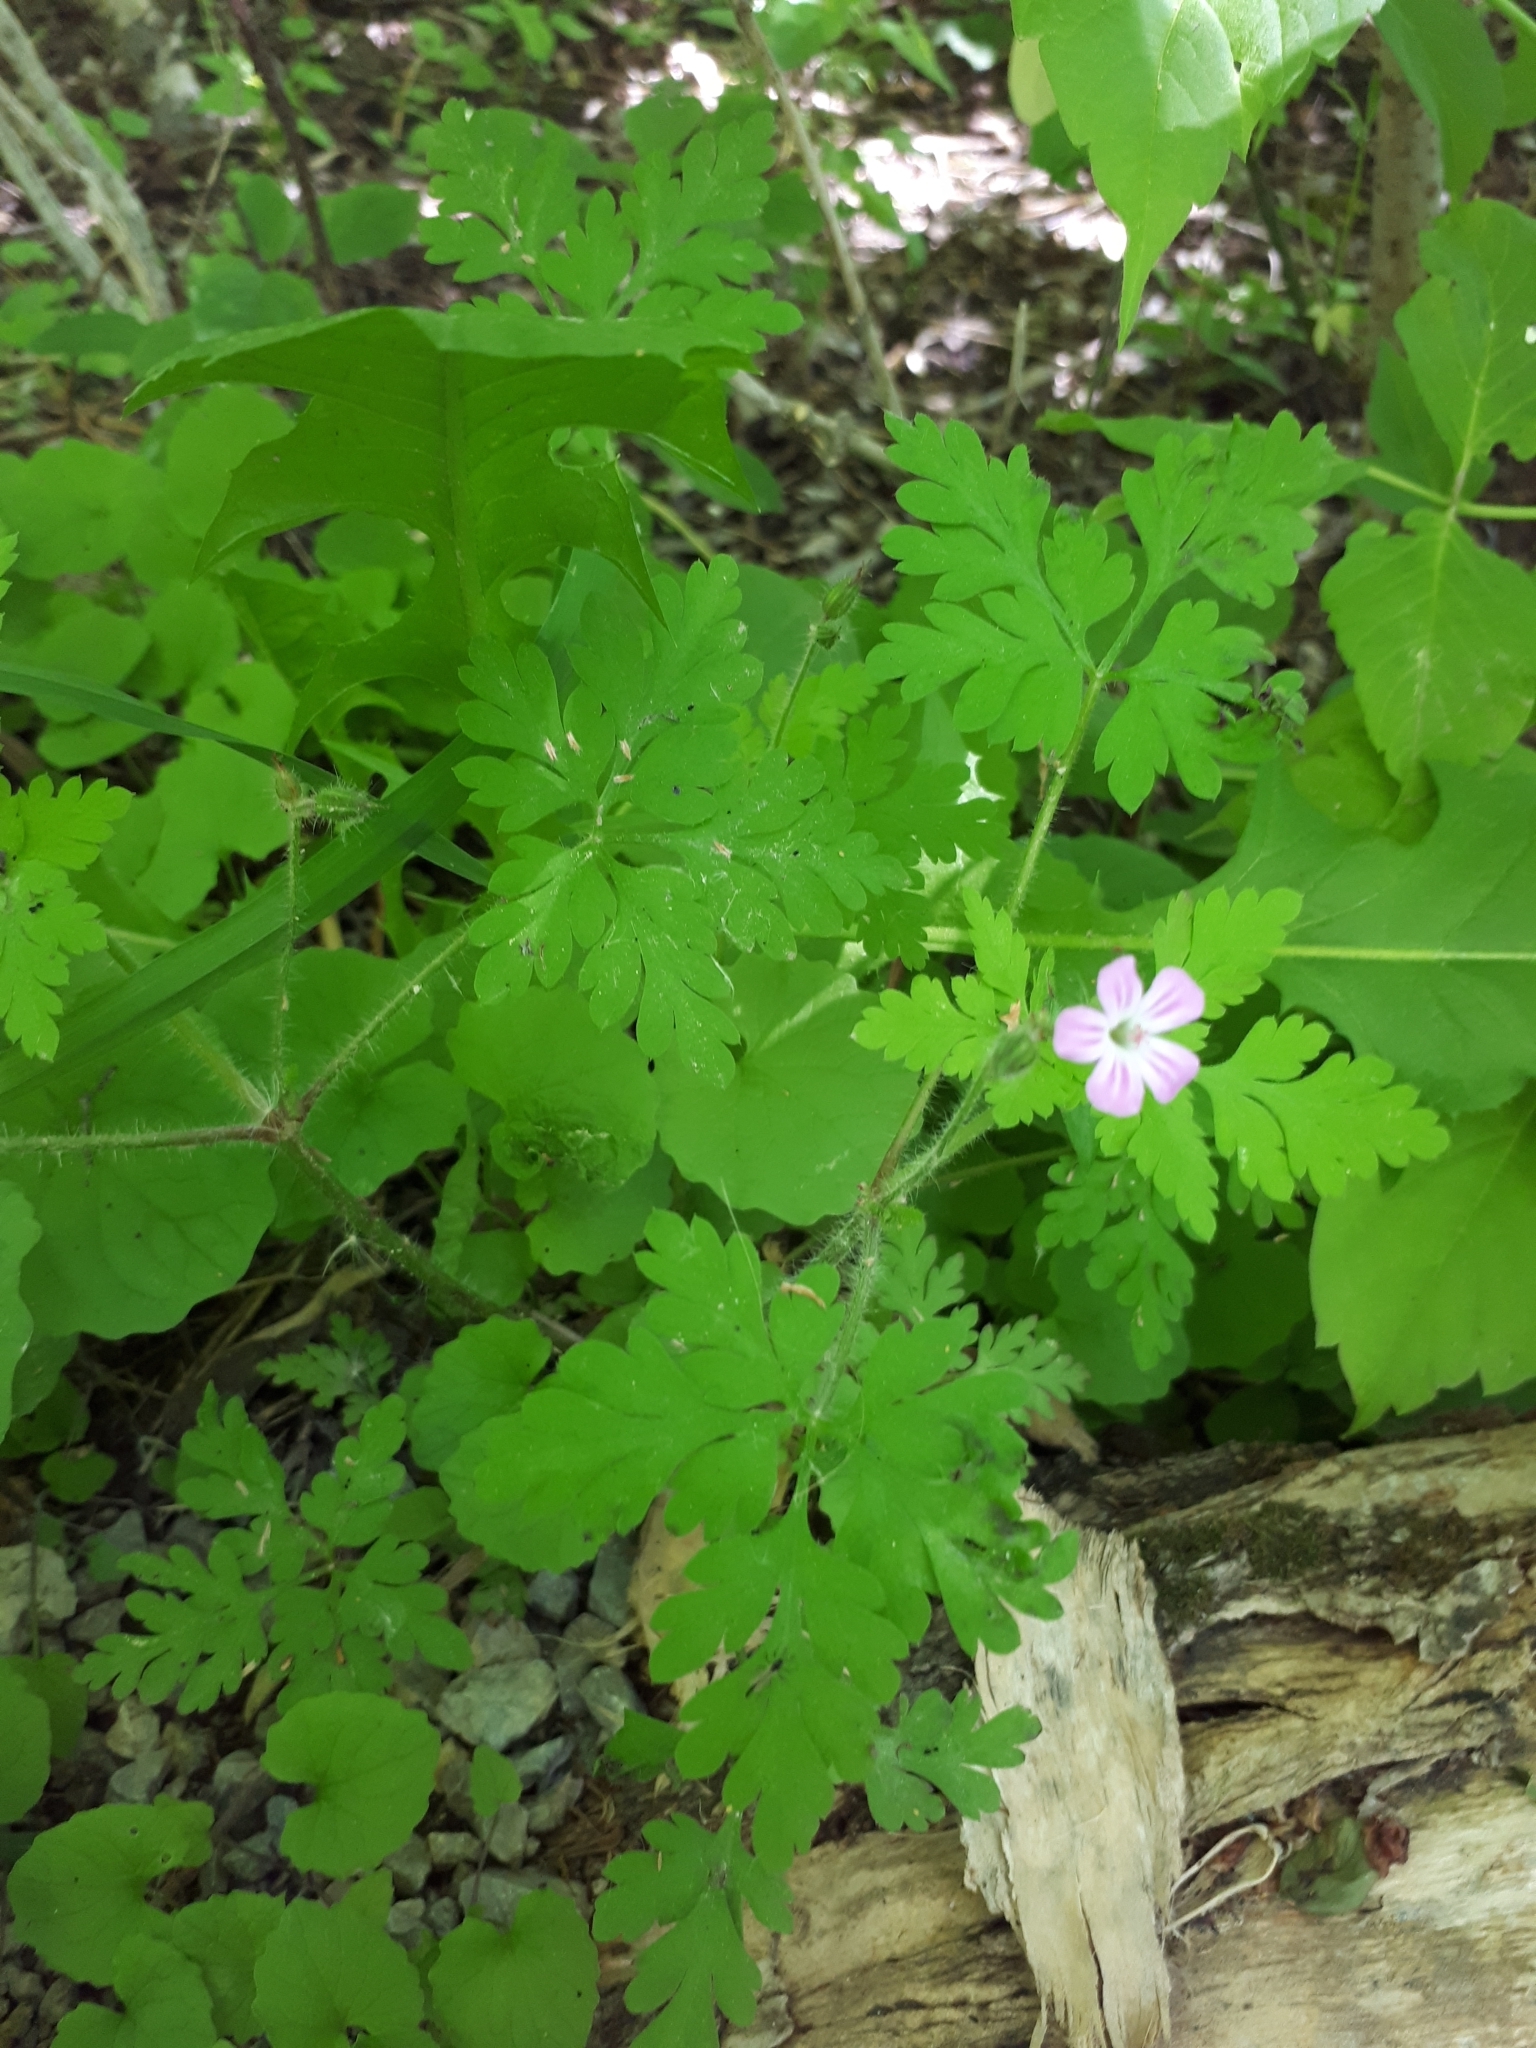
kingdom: Plantae
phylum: Tracheophyta
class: Magnoliopsida
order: Geraniales
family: Geraniaceae
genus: Geranium
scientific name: Geranium robertianum
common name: Herb-robert
